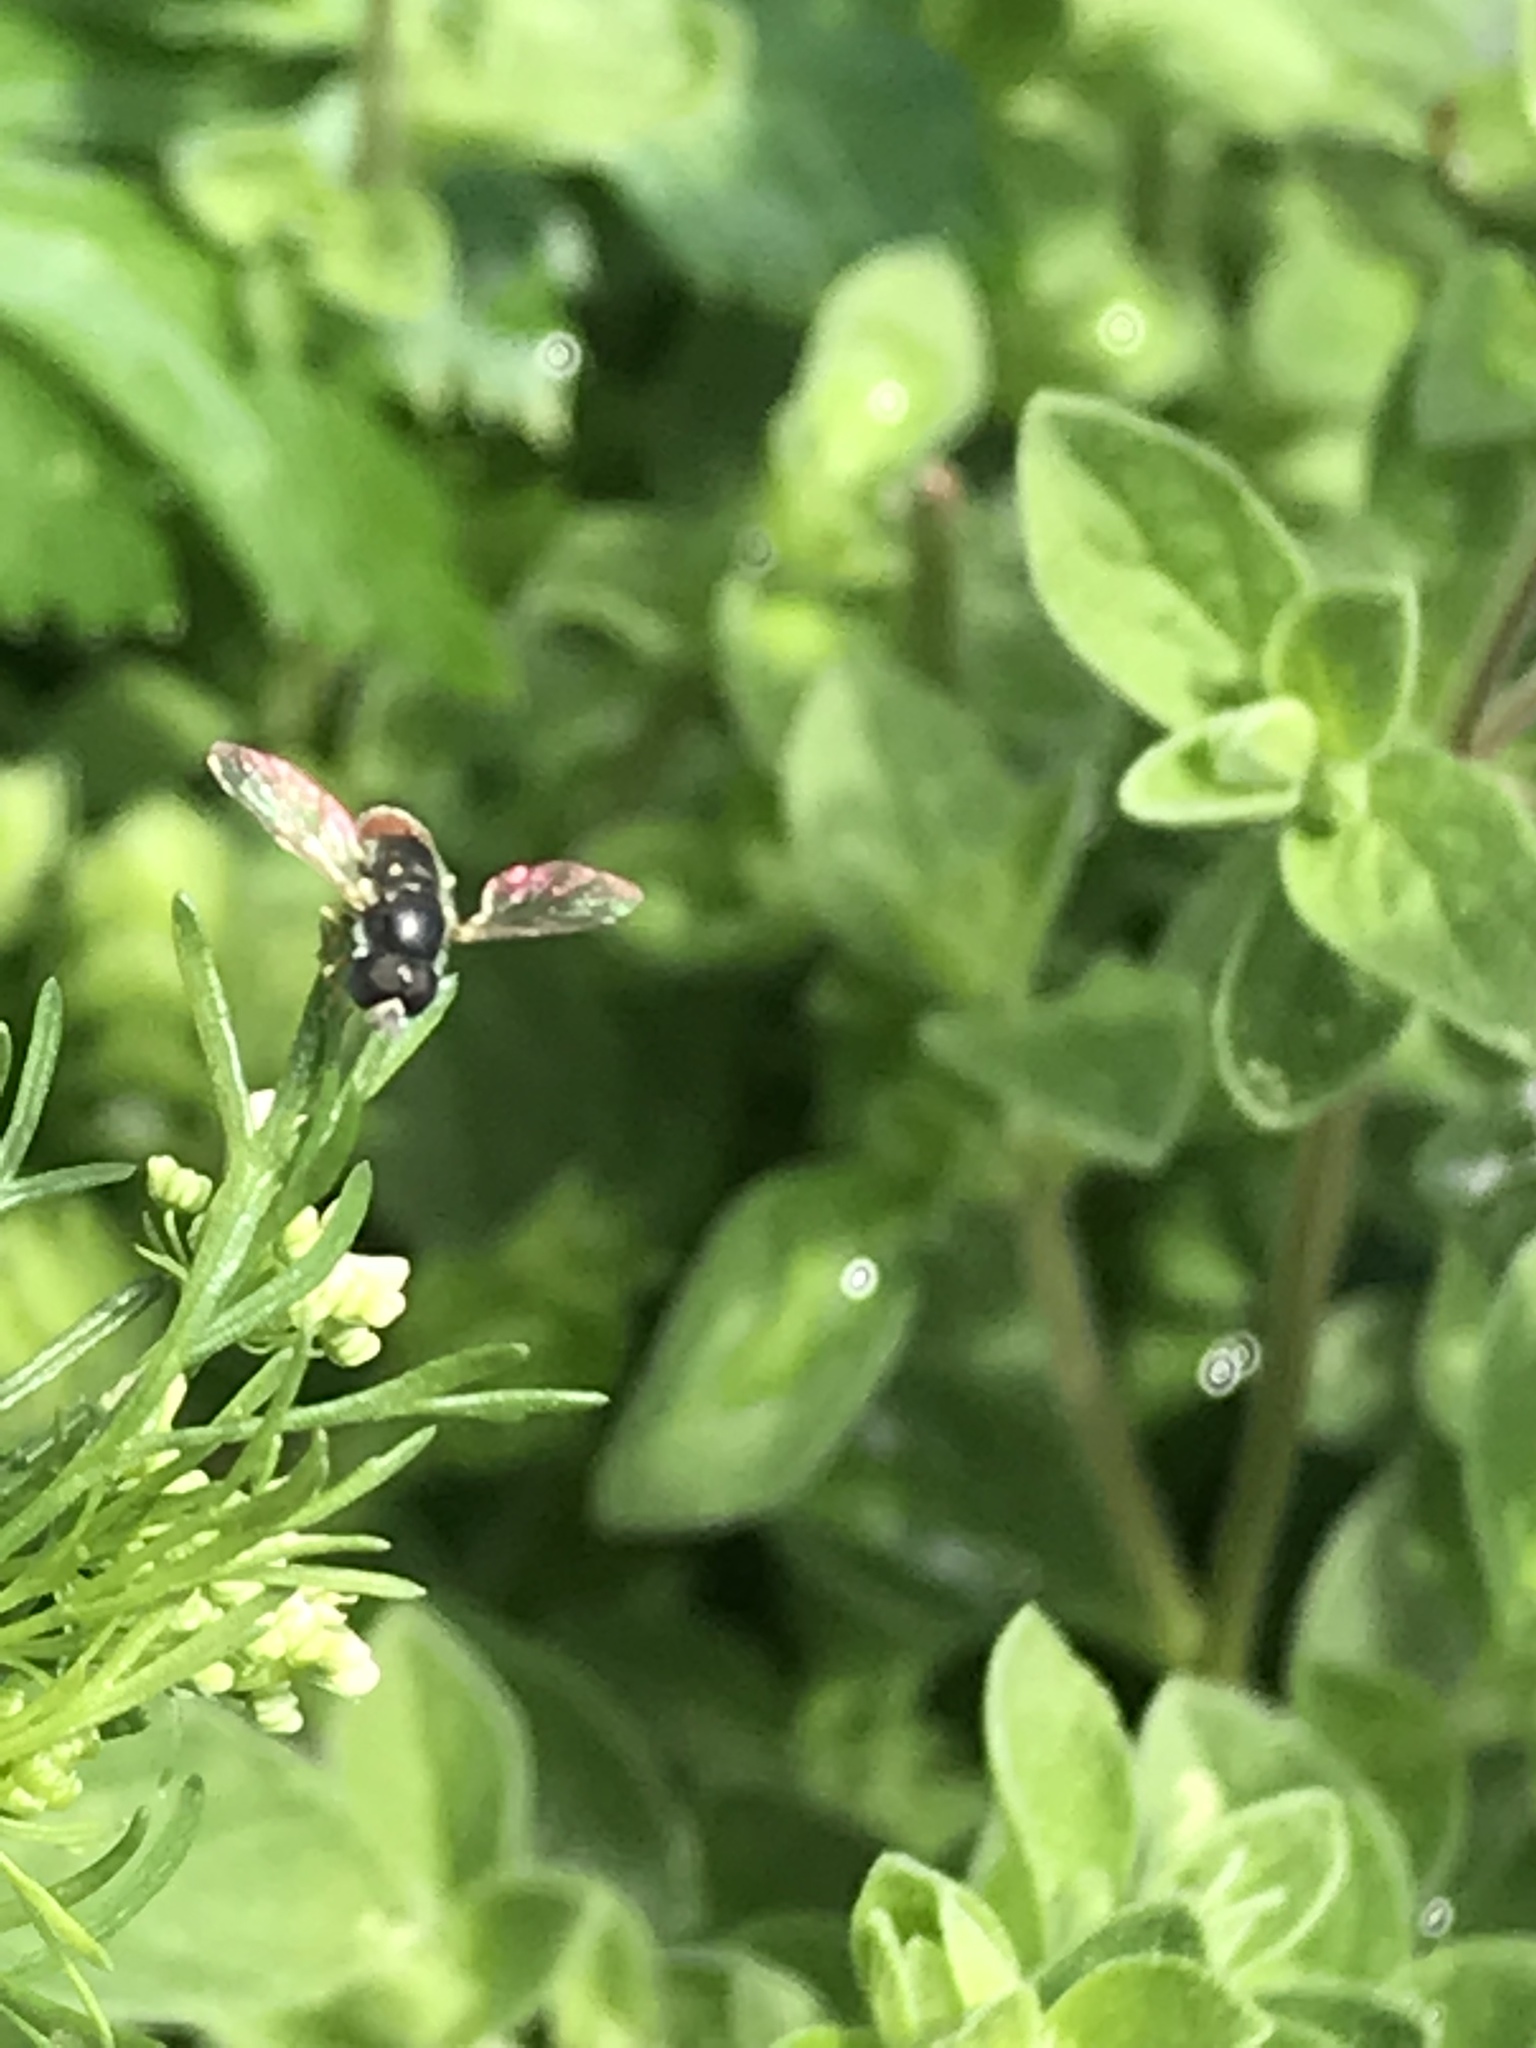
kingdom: Animalia
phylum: Arthropoda
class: Insecta
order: Diptera
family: Syrphidae
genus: Paragus
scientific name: Paragus haemorrhous
